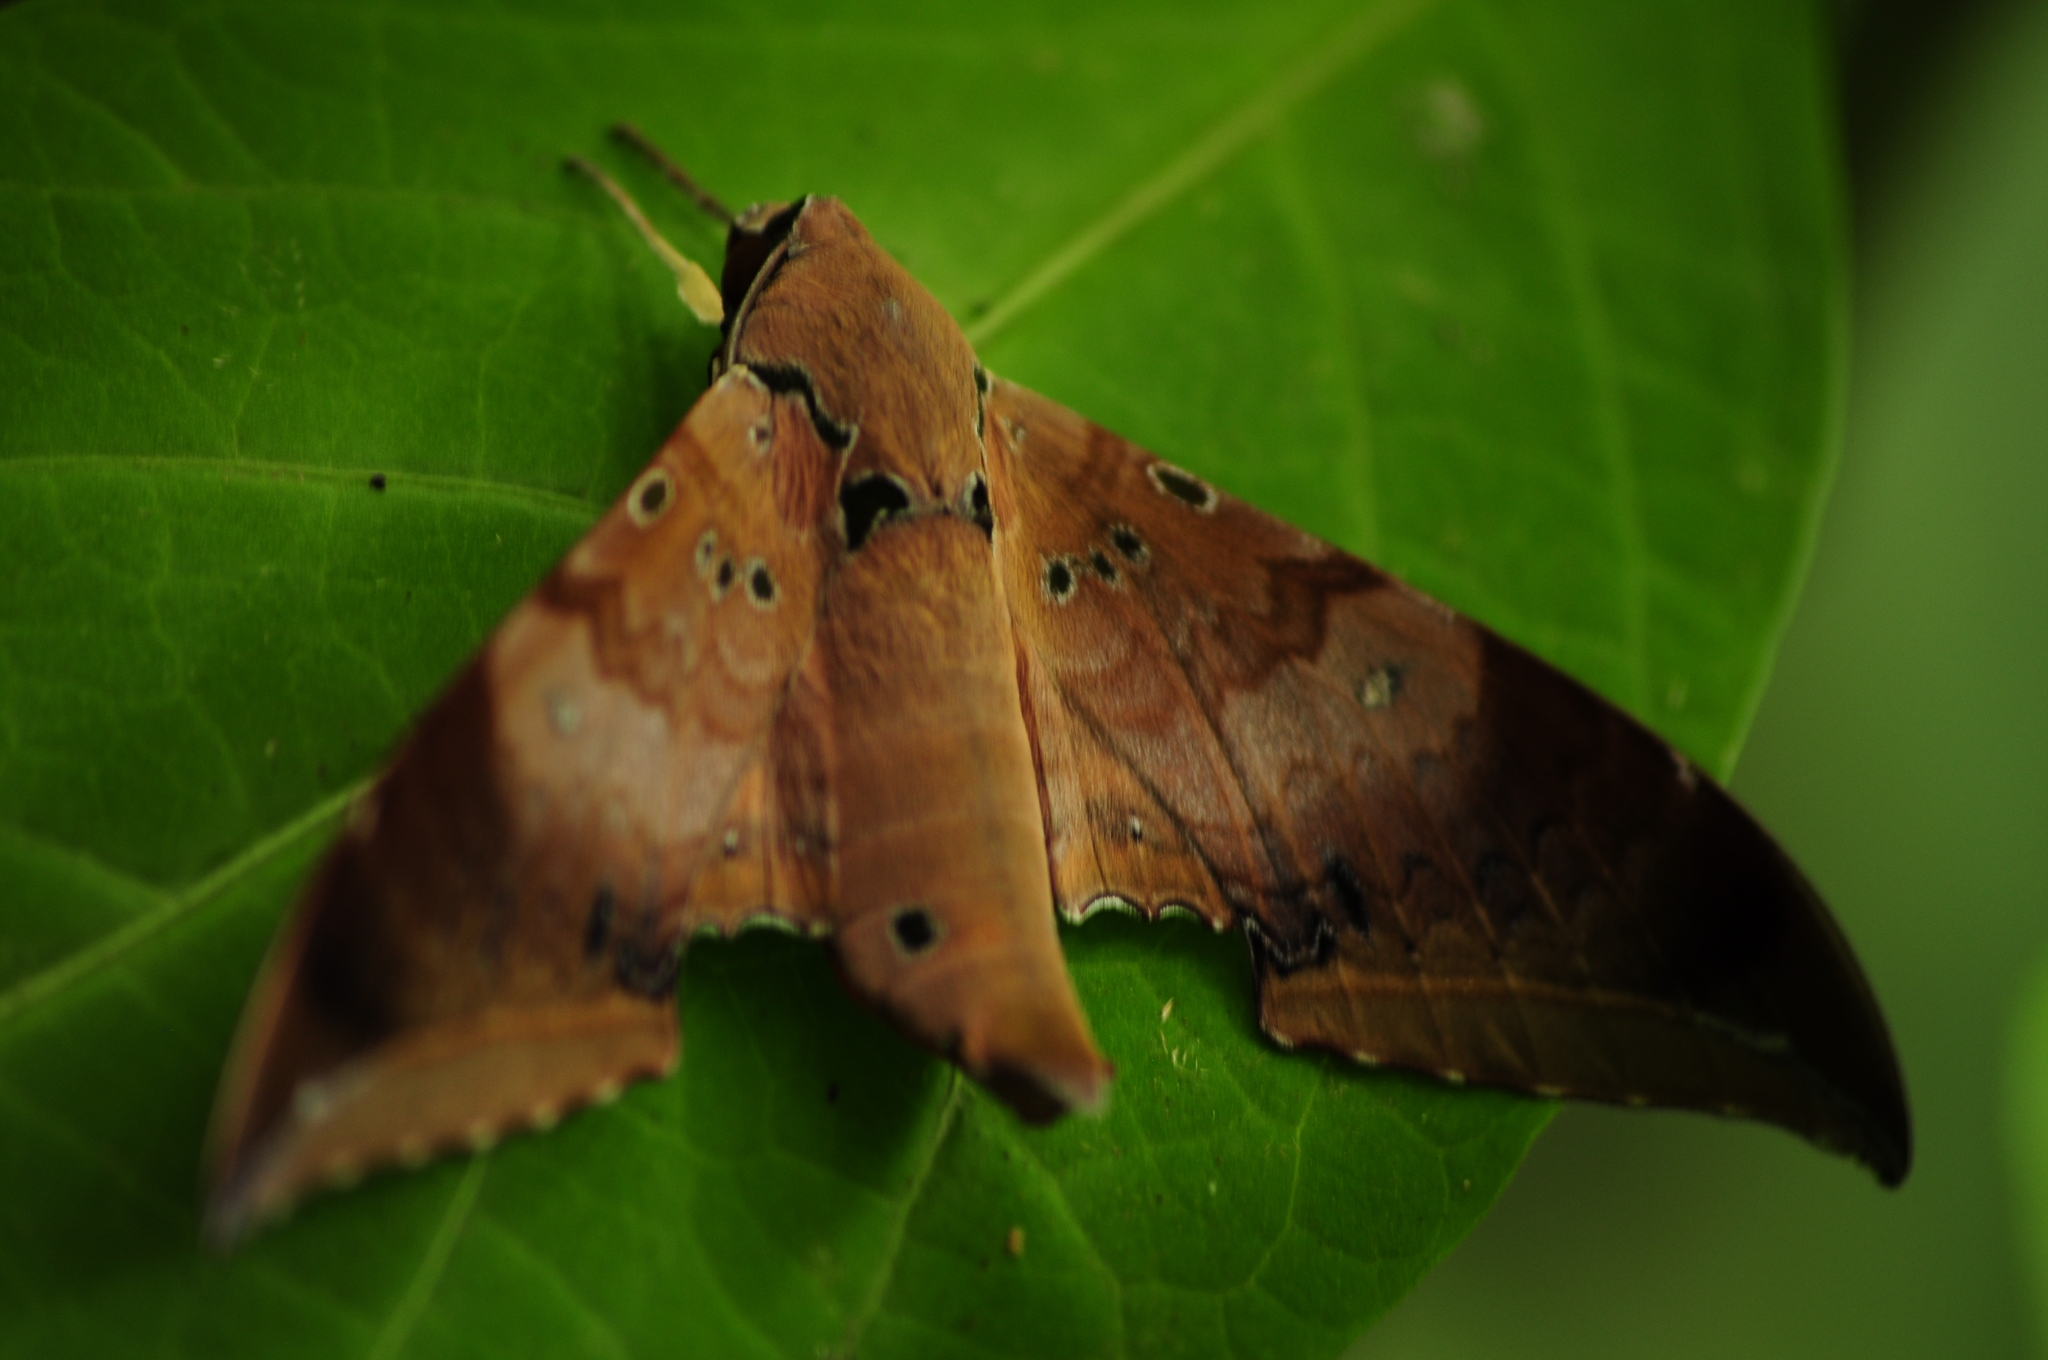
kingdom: Animalia
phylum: Arthropoda
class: Insecta
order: Lepidoptera
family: Sphingidae
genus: Ambulyx
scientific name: Ambulyx moorei
